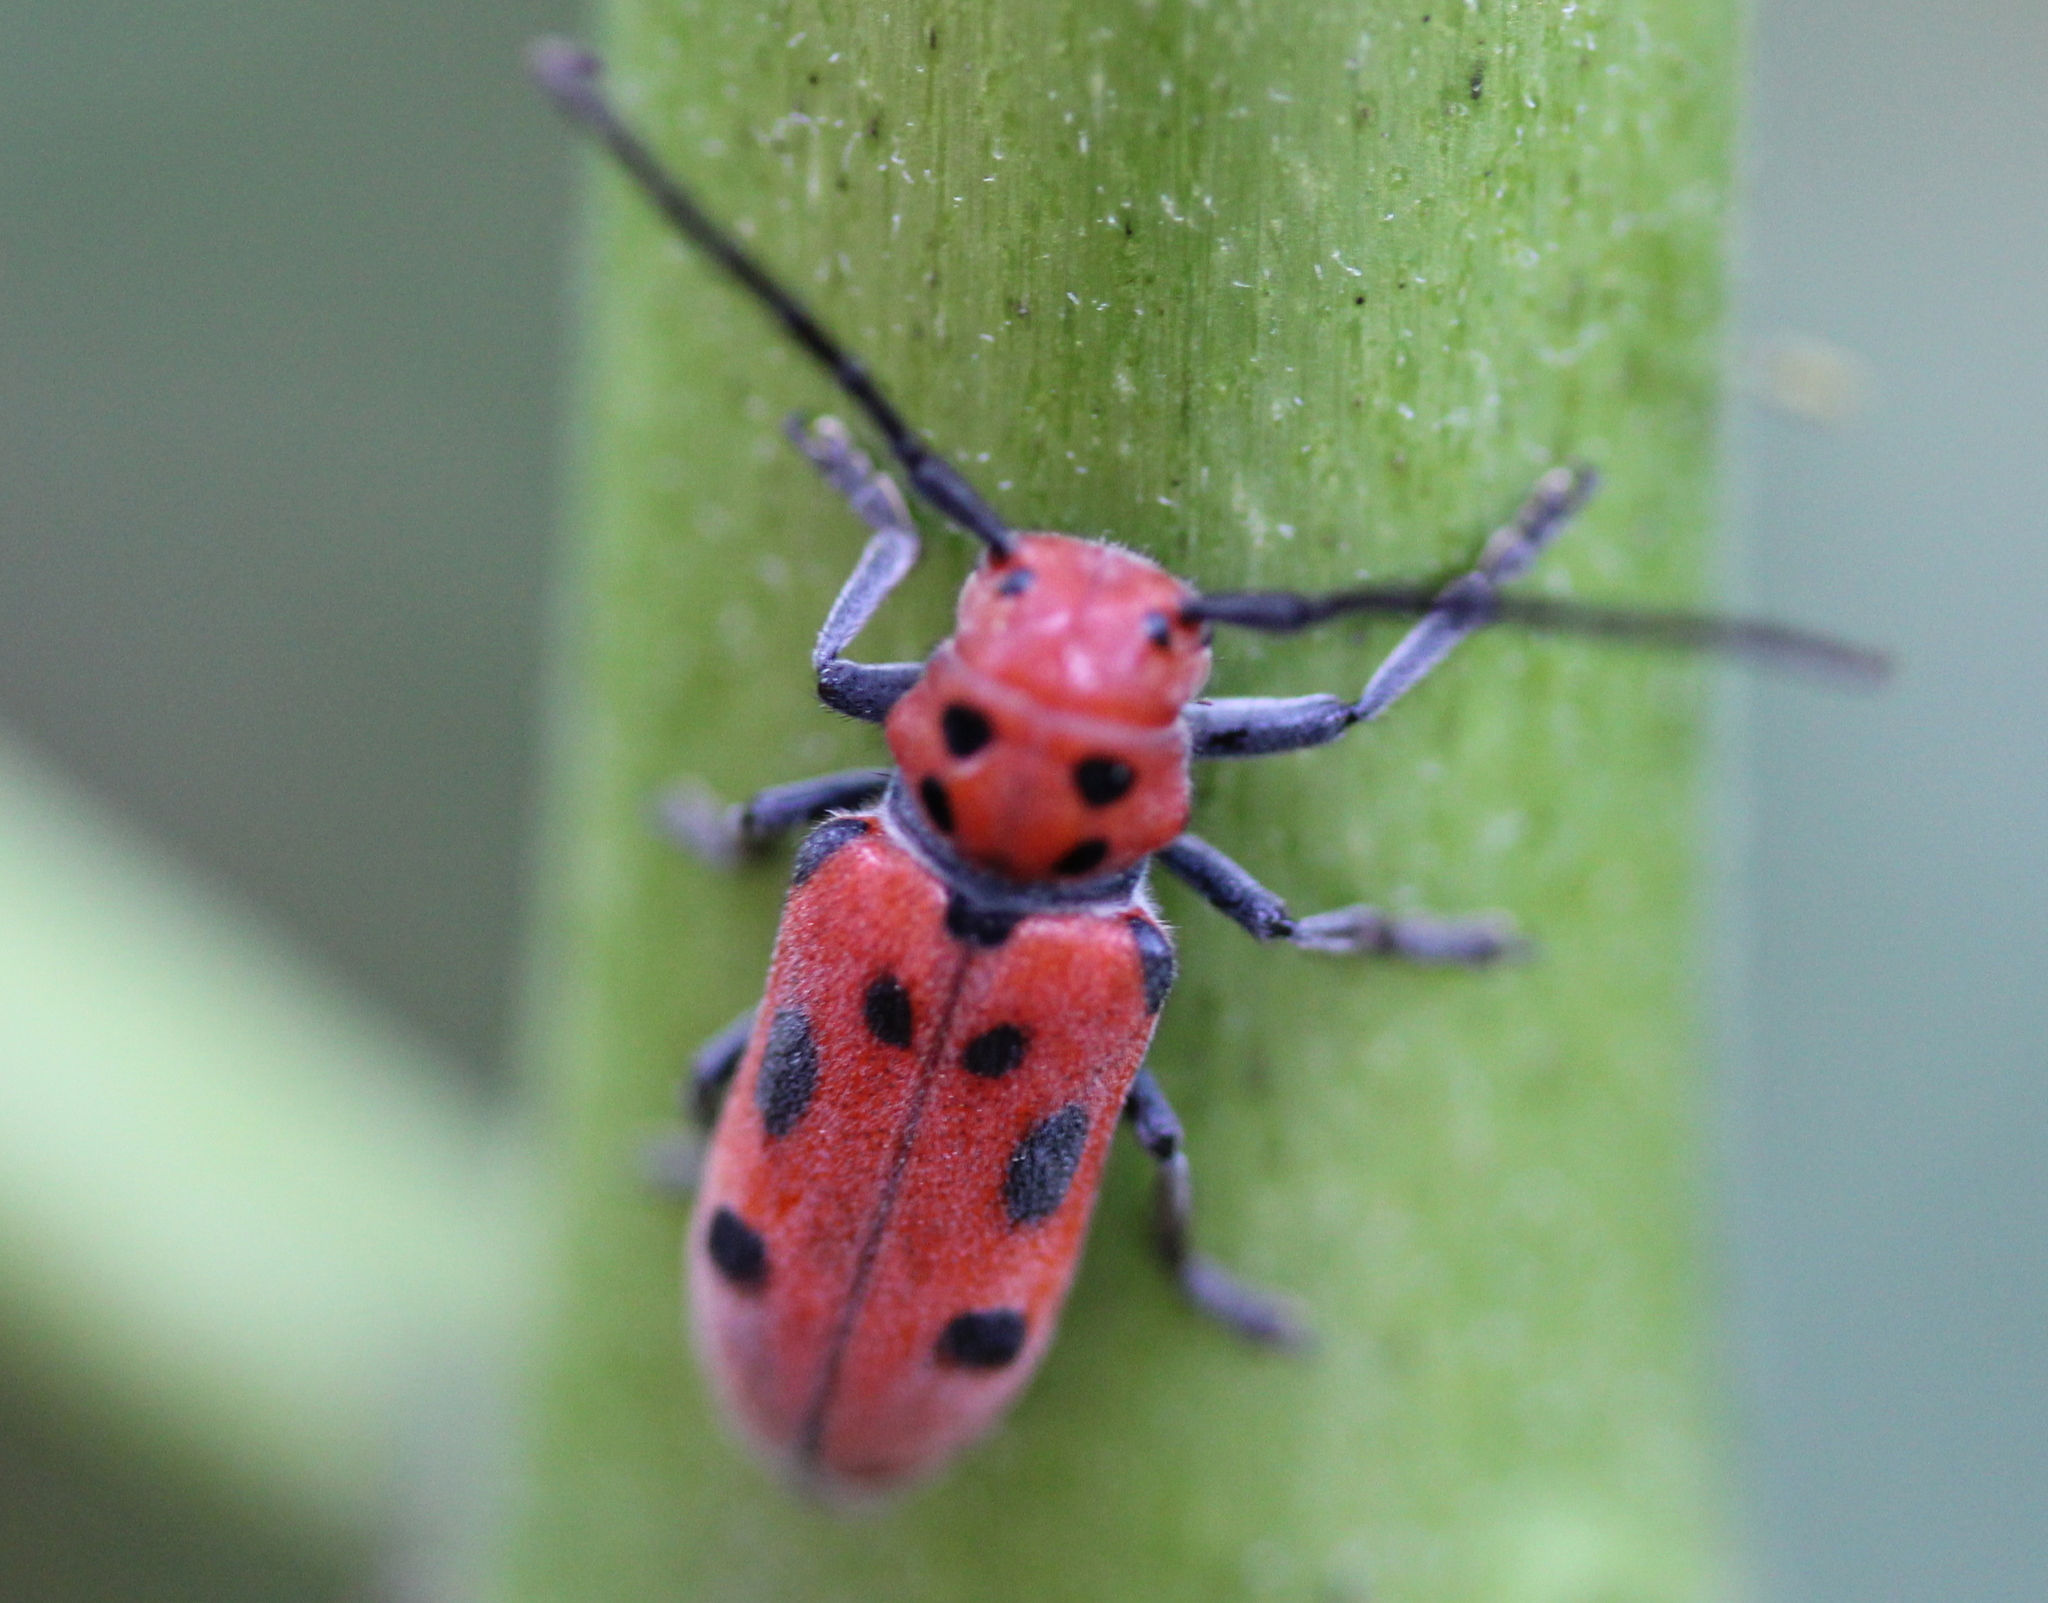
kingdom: Animalia
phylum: Arthropoda
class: Insecta
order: Coleoptera
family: Cerambycidae
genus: Tetraopes
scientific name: Tetraopes tetrophthalmus
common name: Red milkweed beetle
